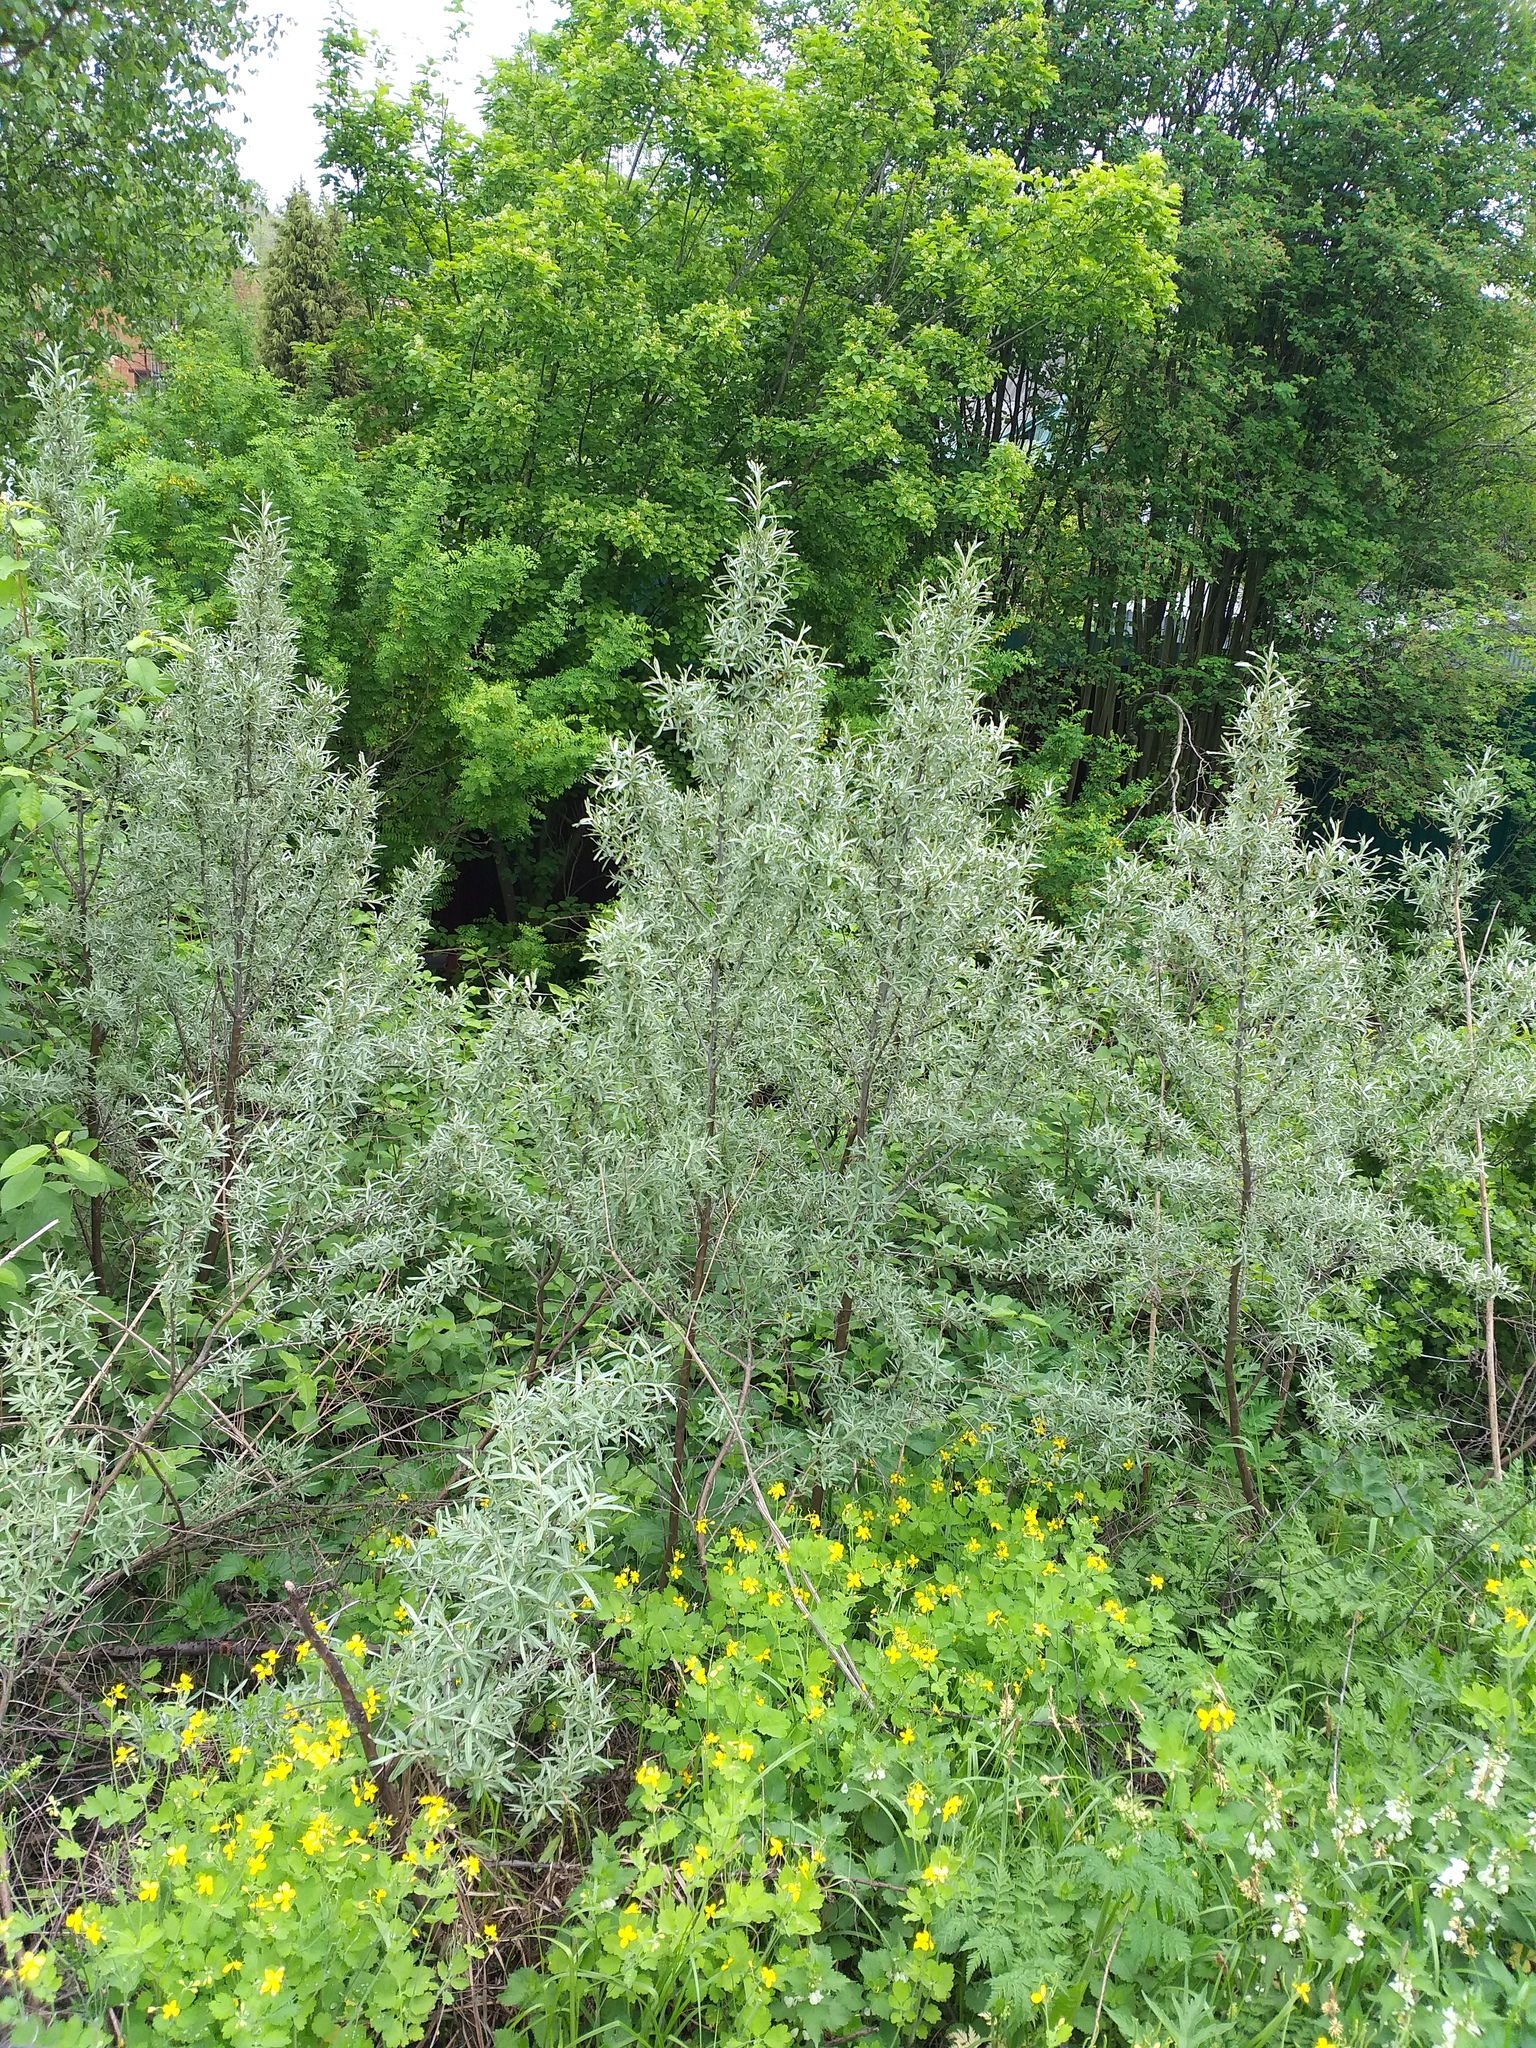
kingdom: Plantae
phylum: Tracheophyta
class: Magnoliopsida
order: Rosales
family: Elaeagnaceae
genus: Hippophae
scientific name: Hippophae rhamnoides
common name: Sea-buckthorn
